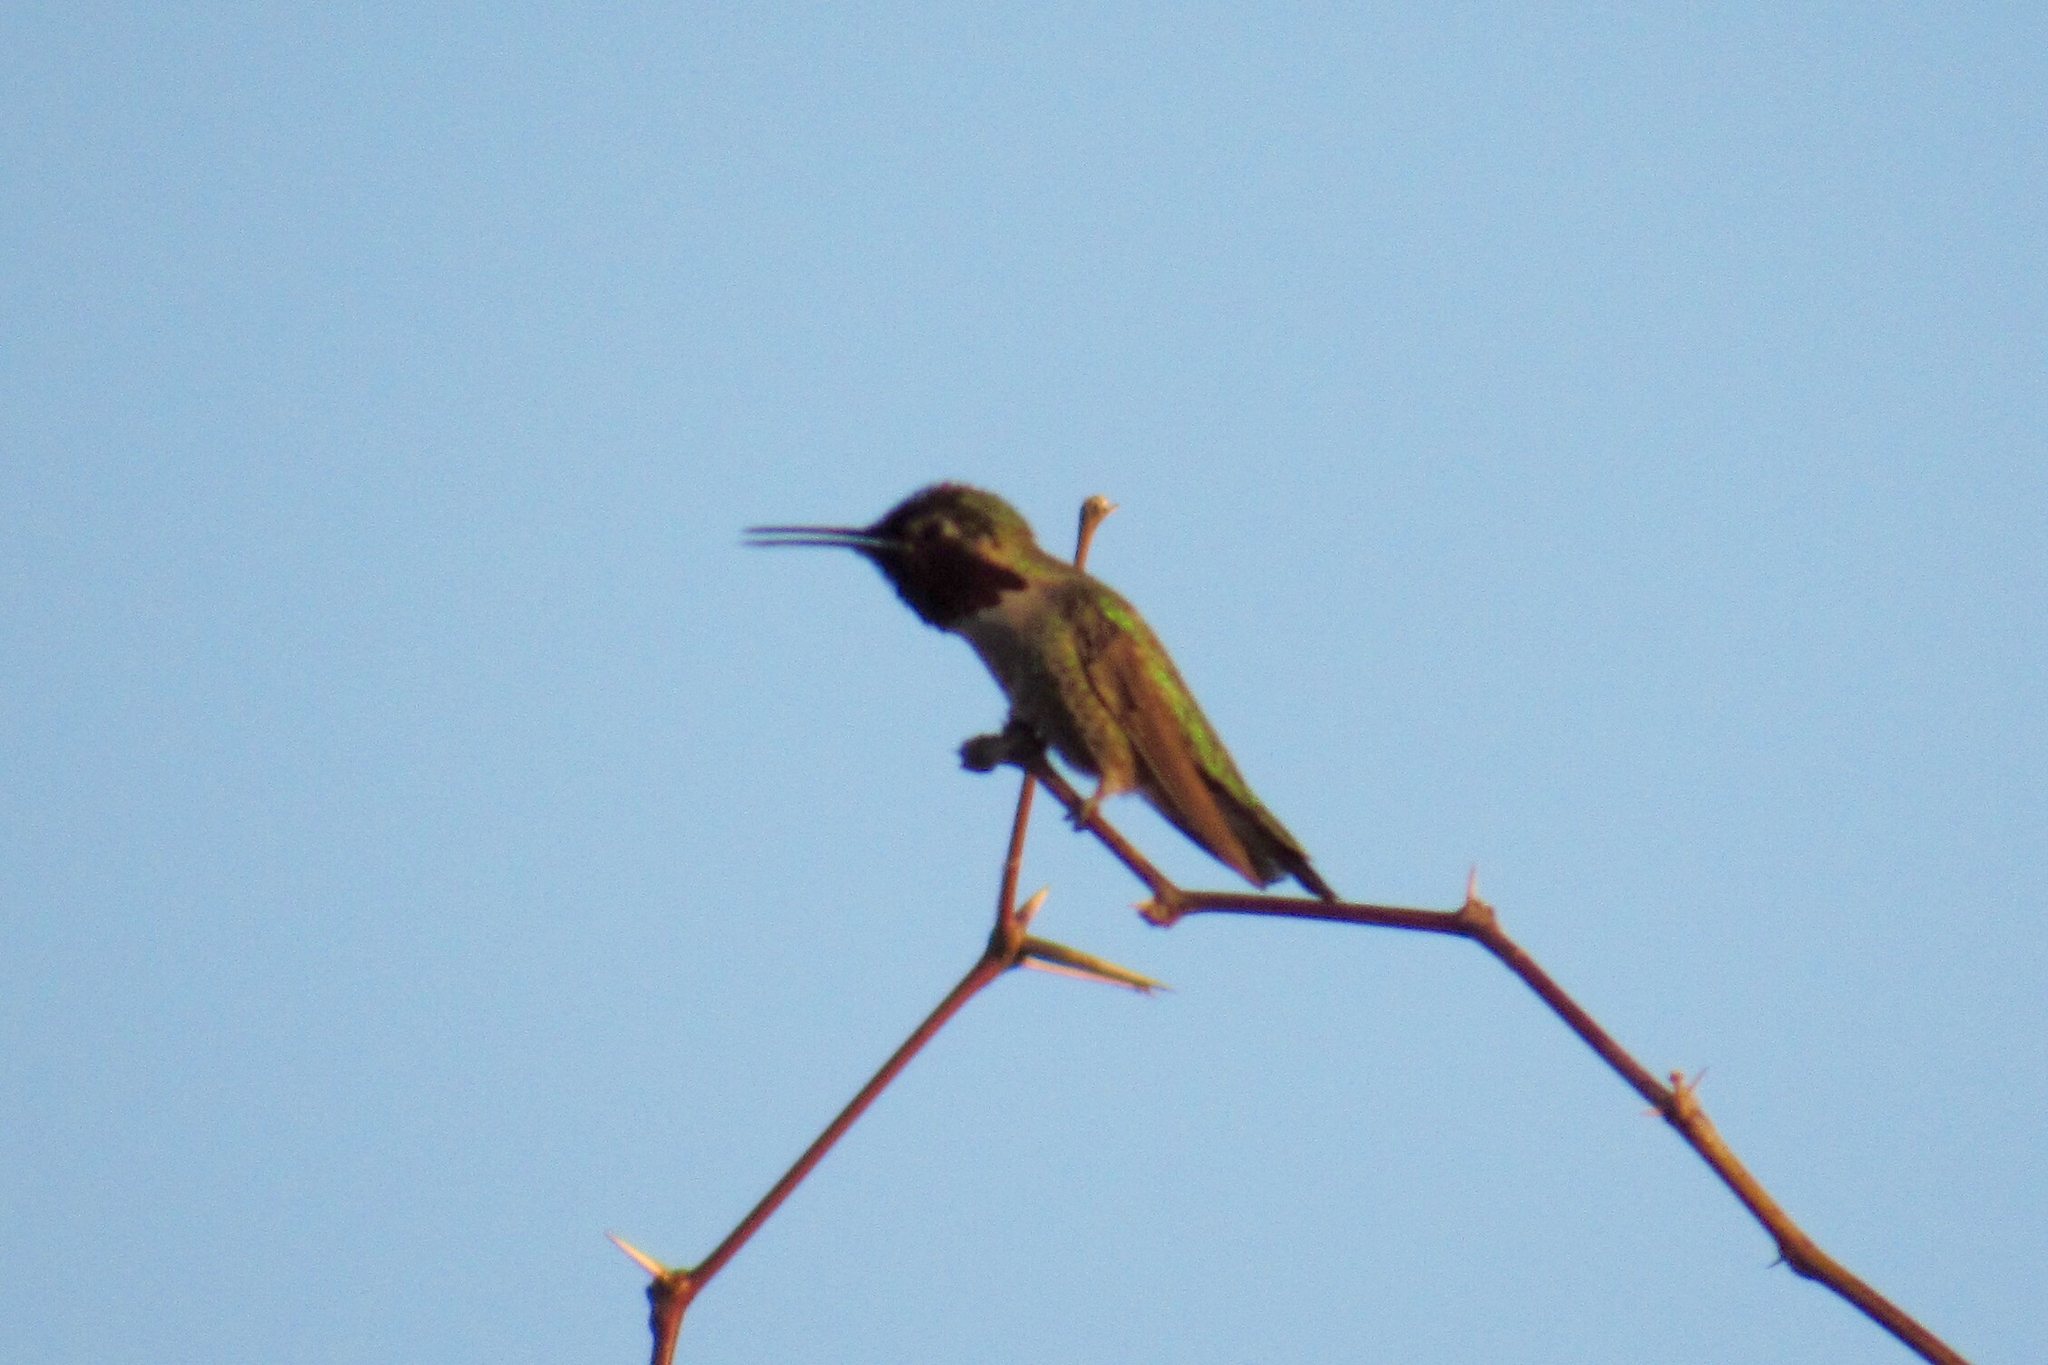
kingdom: Animalia
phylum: Chordata
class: Aves
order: Apodiformes
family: Trochilidae
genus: Calypte
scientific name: Calypte anna
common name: Anna's hummingbird
